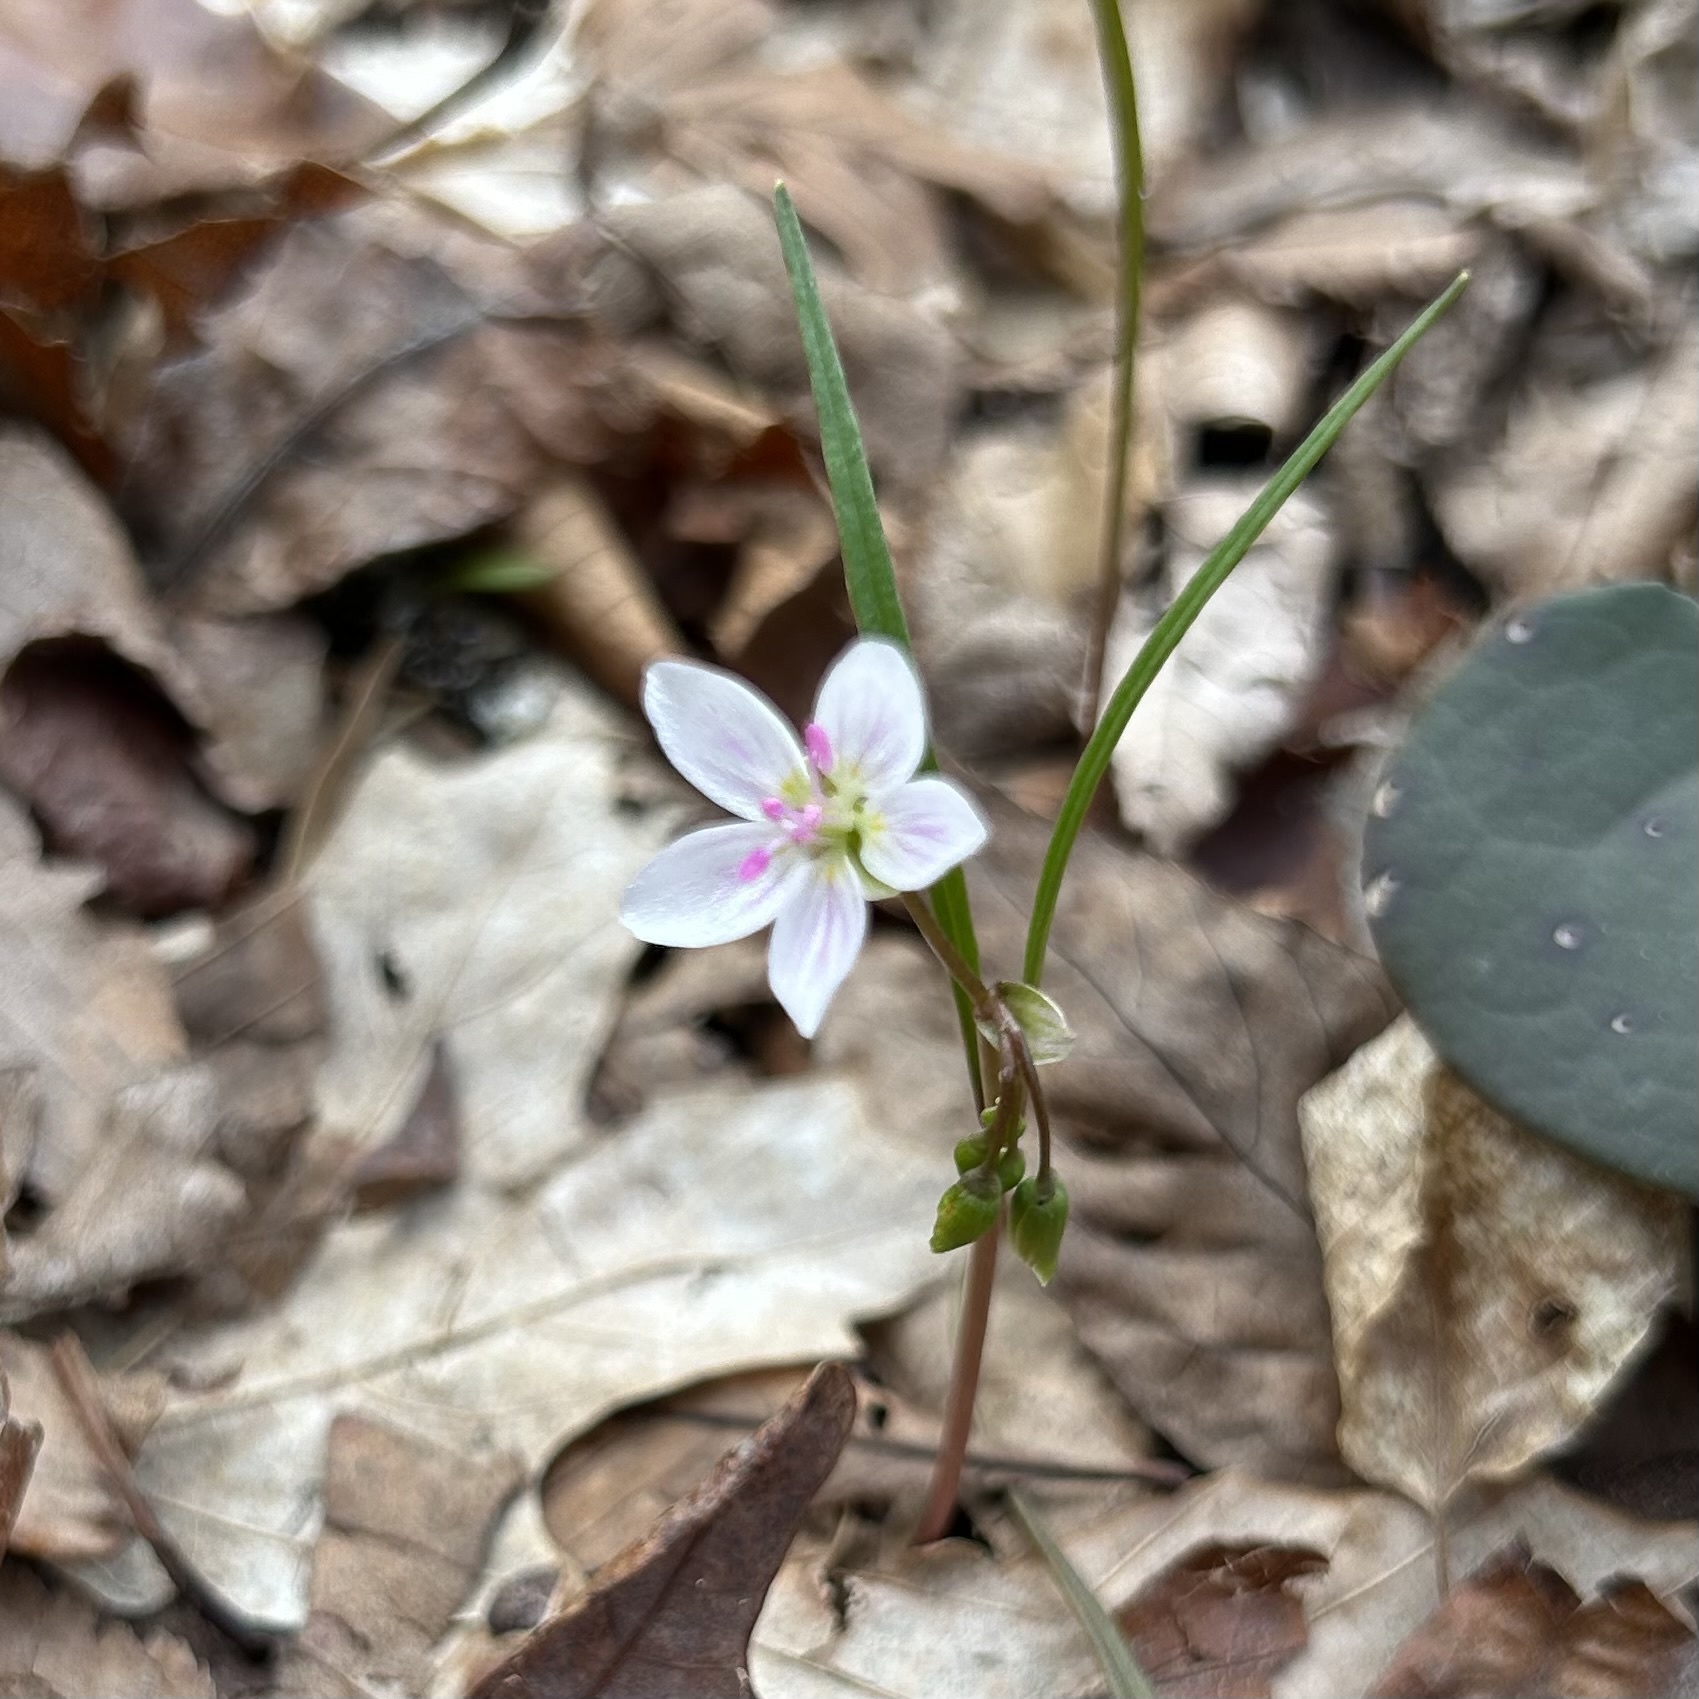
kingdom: Plantae
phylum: Tracheophyta
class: Magnoliopsida
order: Caryophyllales
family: Montiaceae
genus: Claytonia
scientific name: Claytonia virginica
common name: Virginia springbeauty
